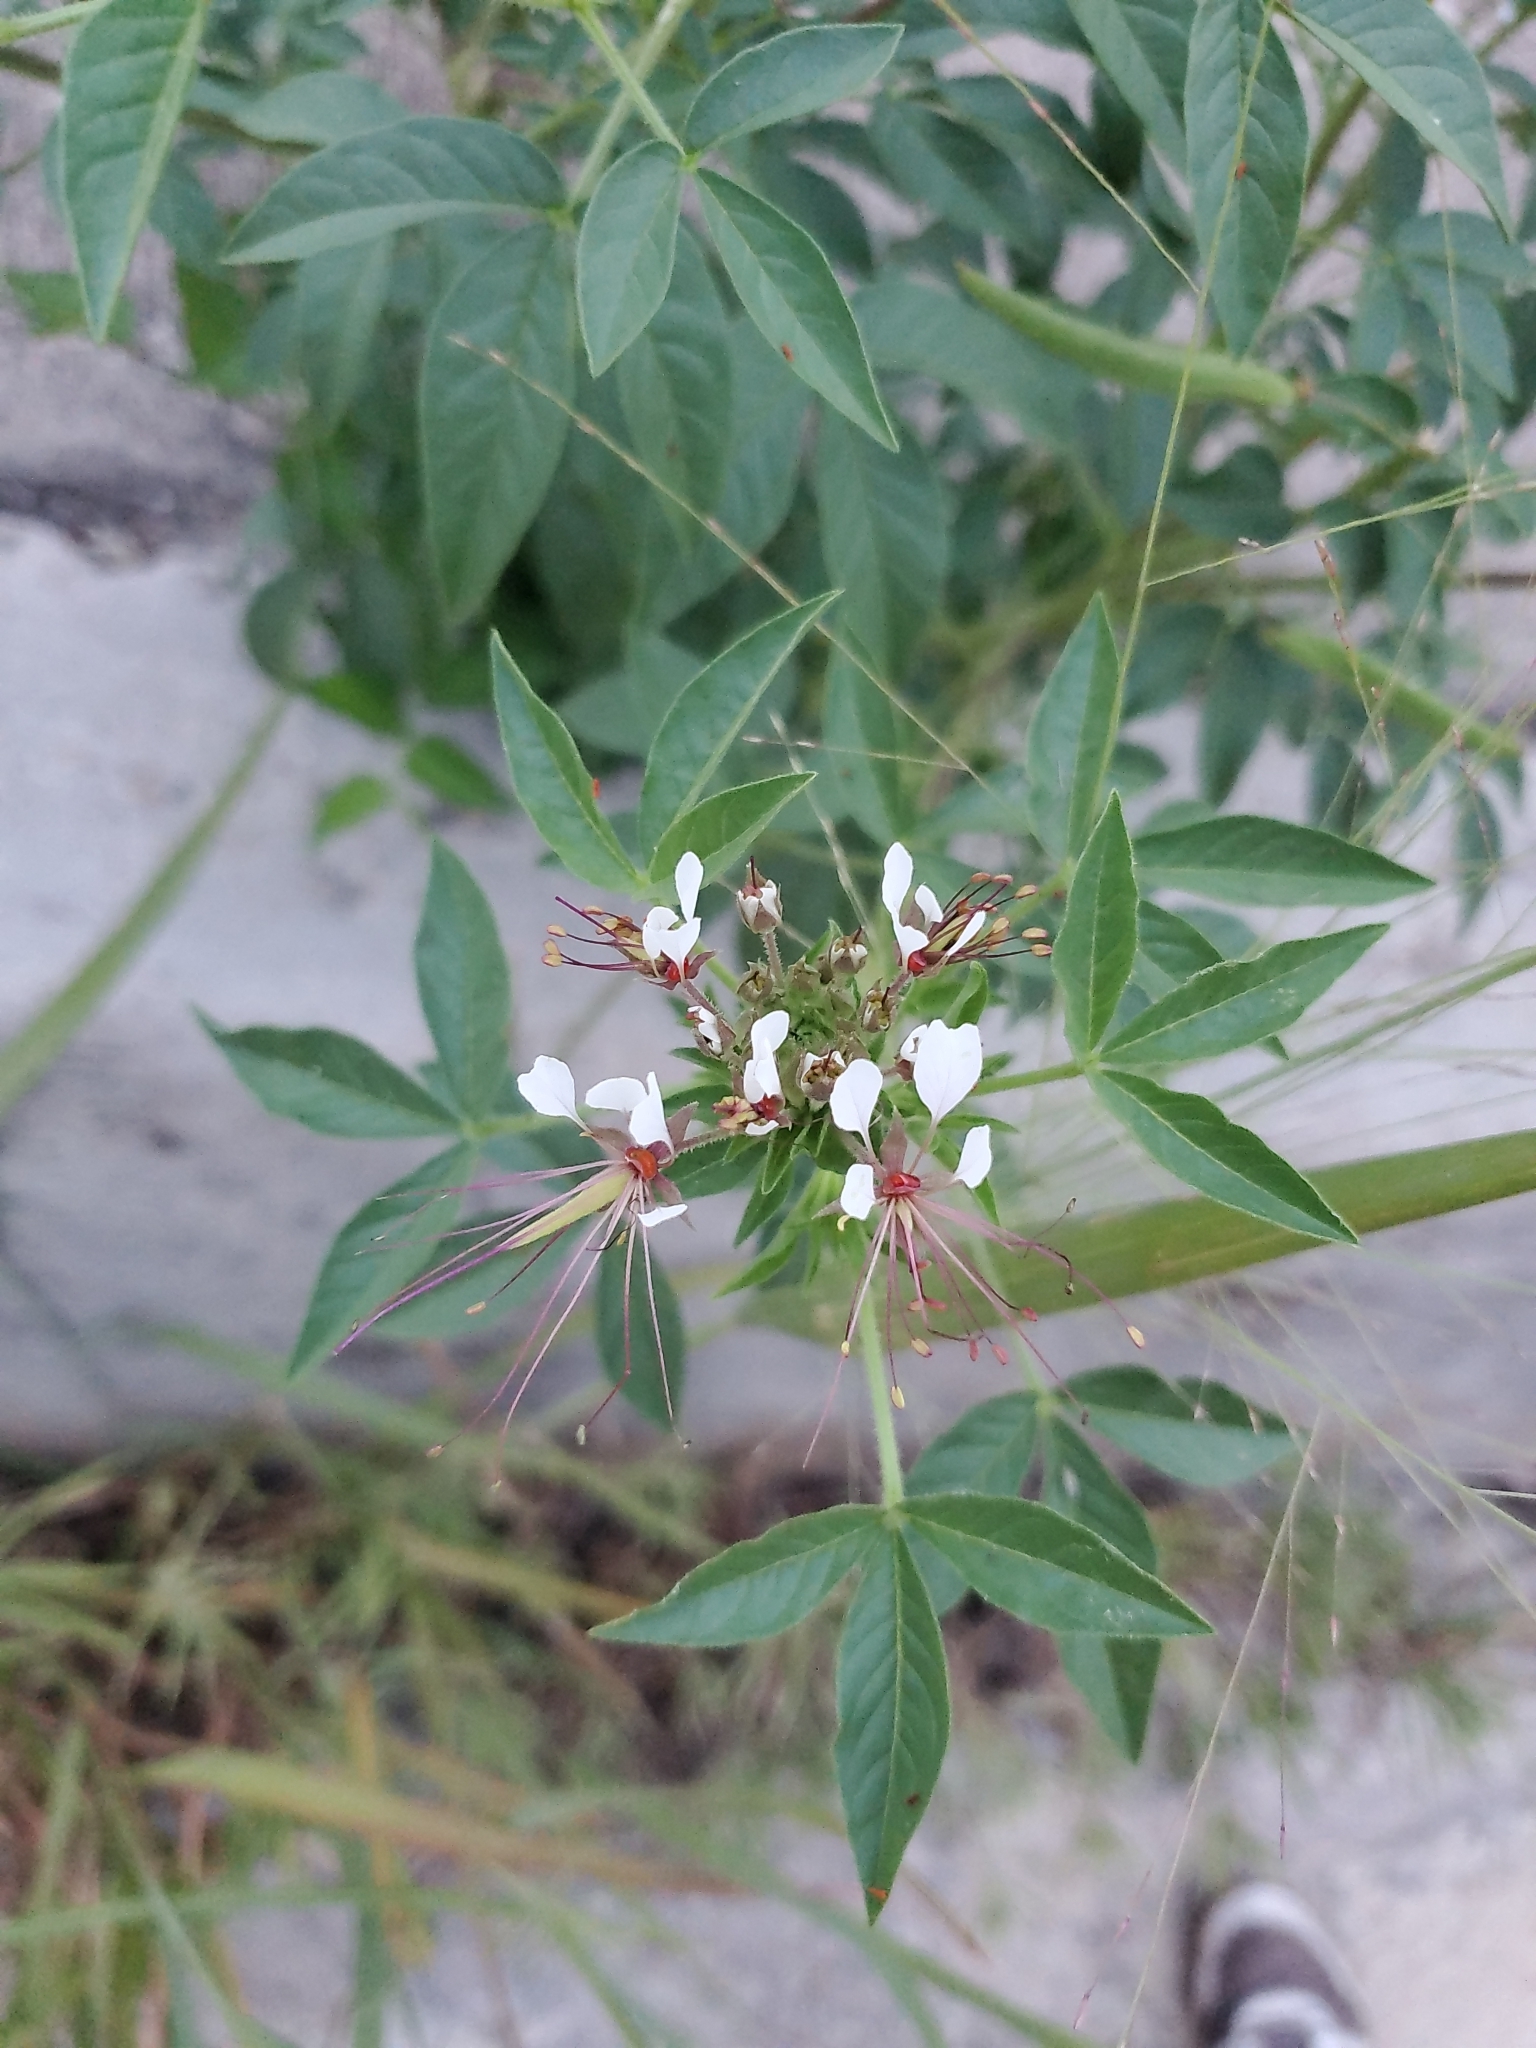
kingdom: Plantae
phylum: Tracheophyta
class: Magnoliopsida
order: Brassicales
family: Cleomaceae
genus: Polanisia
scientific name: Polanisia dodecandra
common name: Clammyweed
